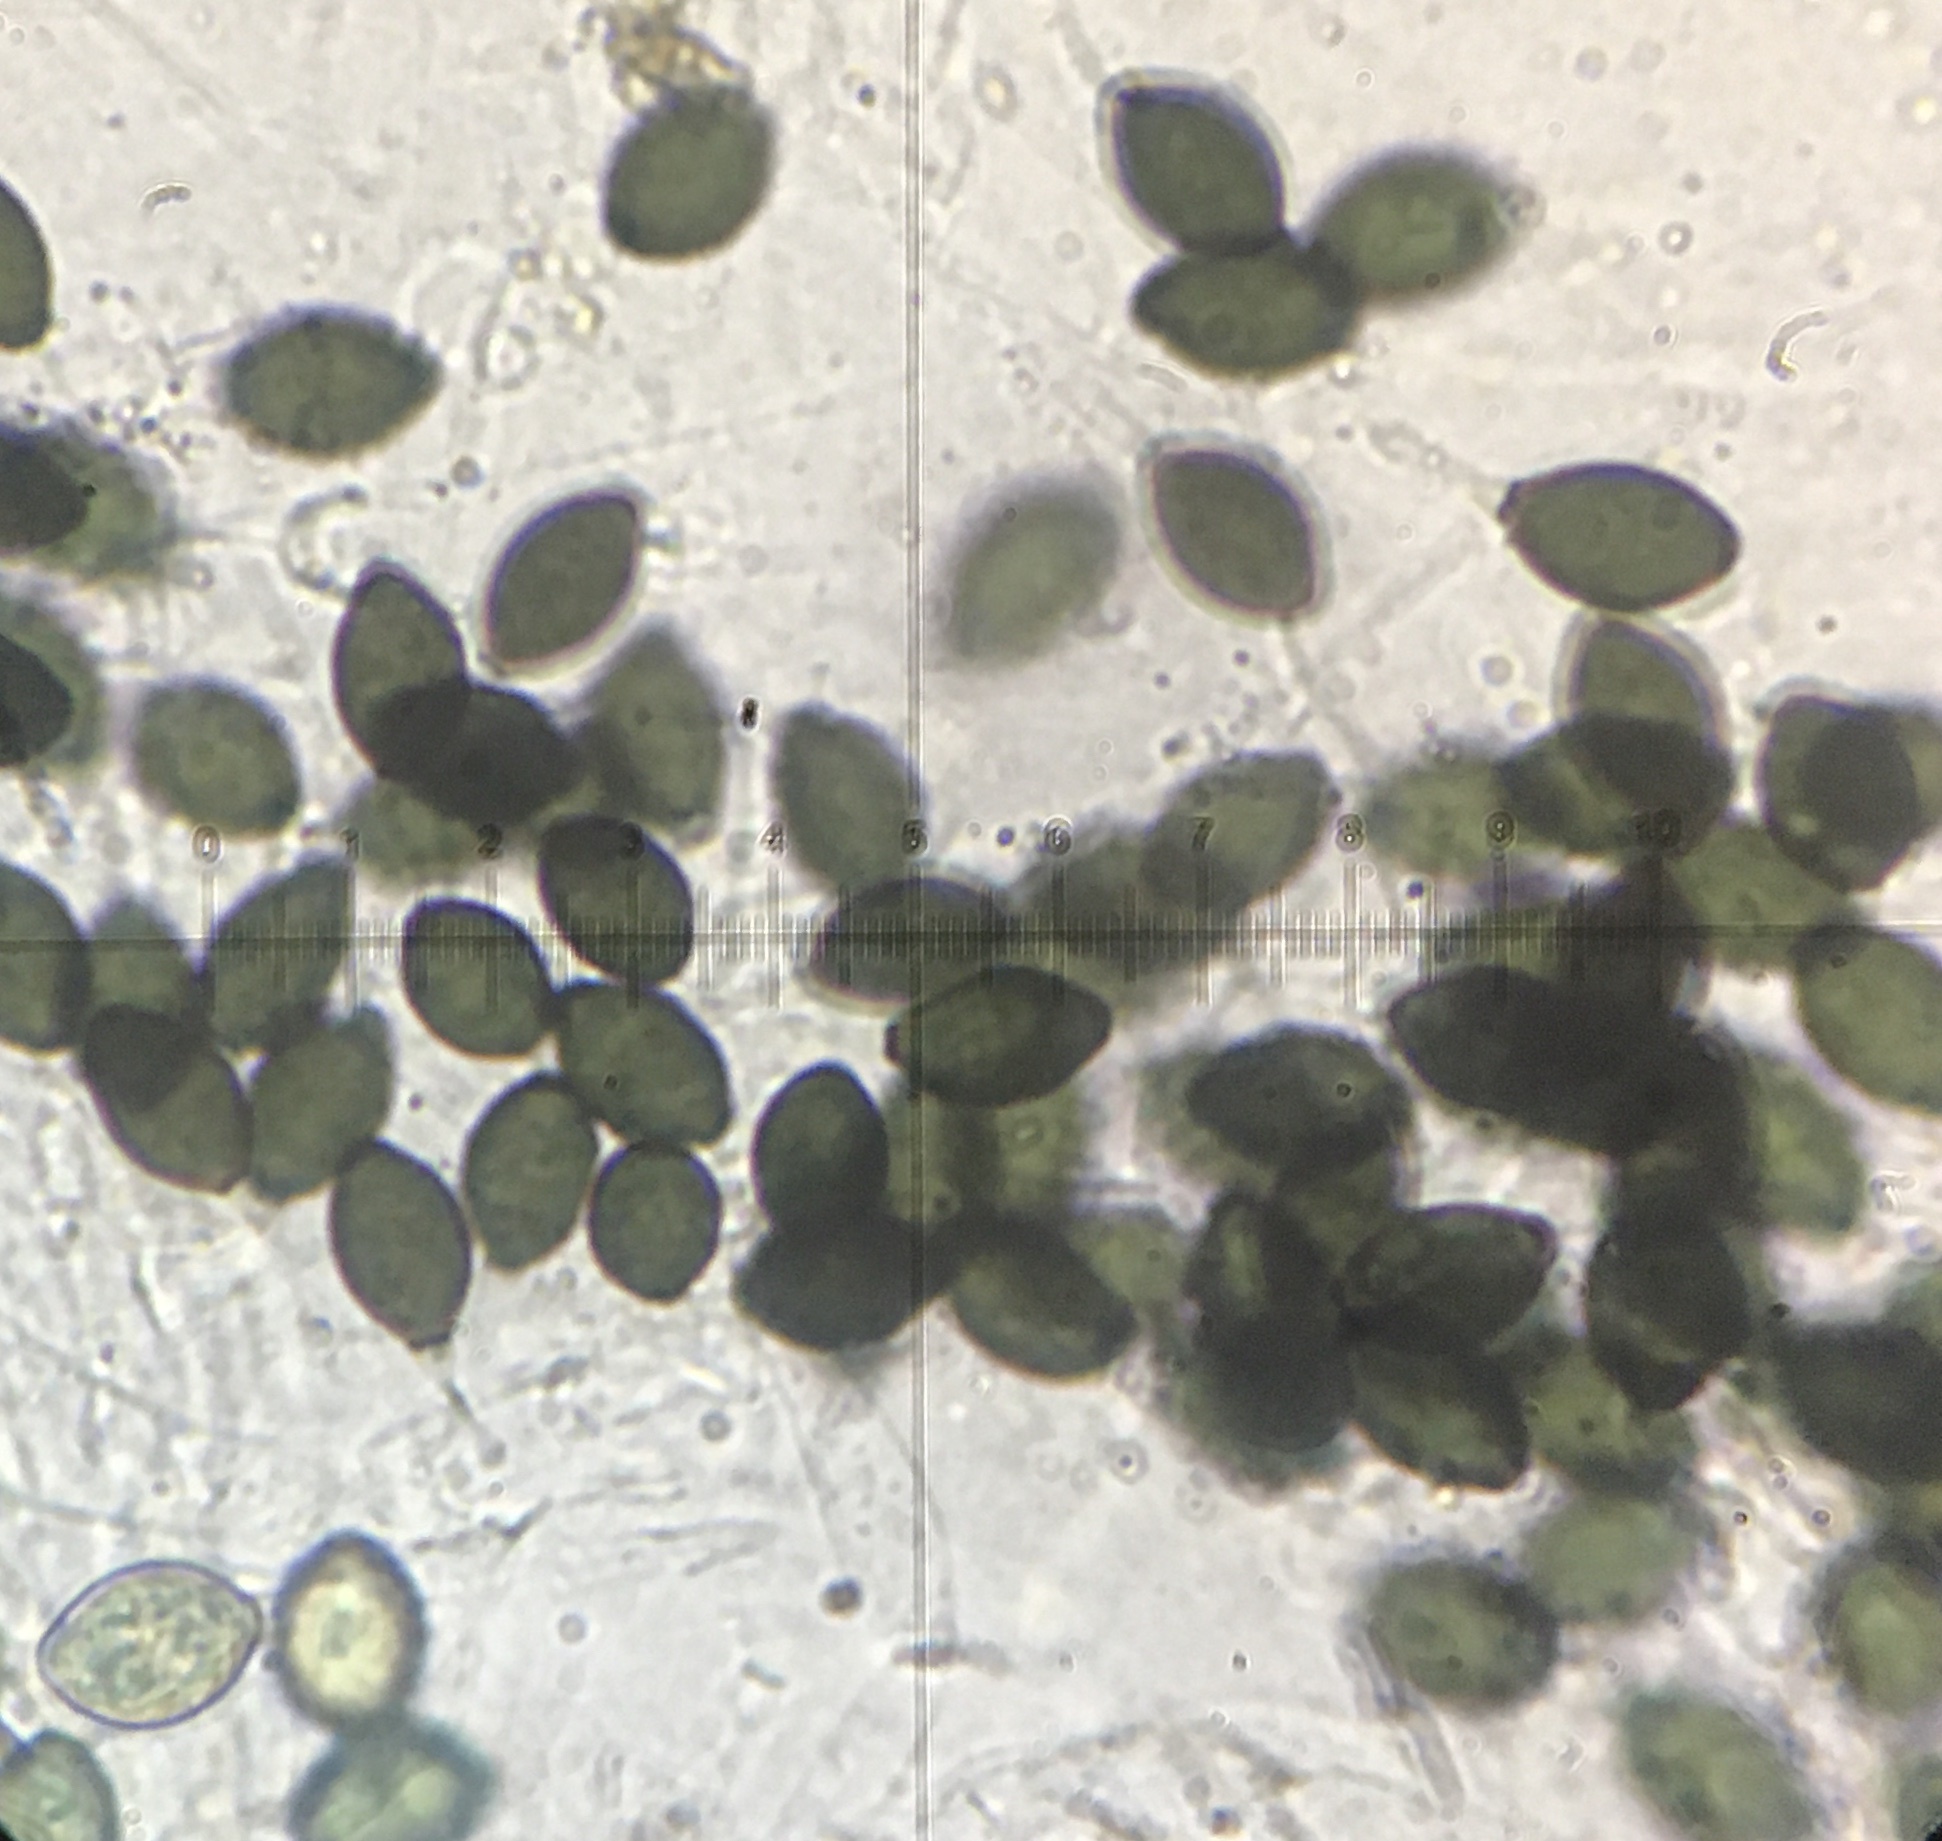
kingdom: Fungi
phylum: Ascomycota
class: Sordariomycetes
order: Sordariales
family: Podosporaceae
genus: Podospora
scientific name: Podospora collapsa
